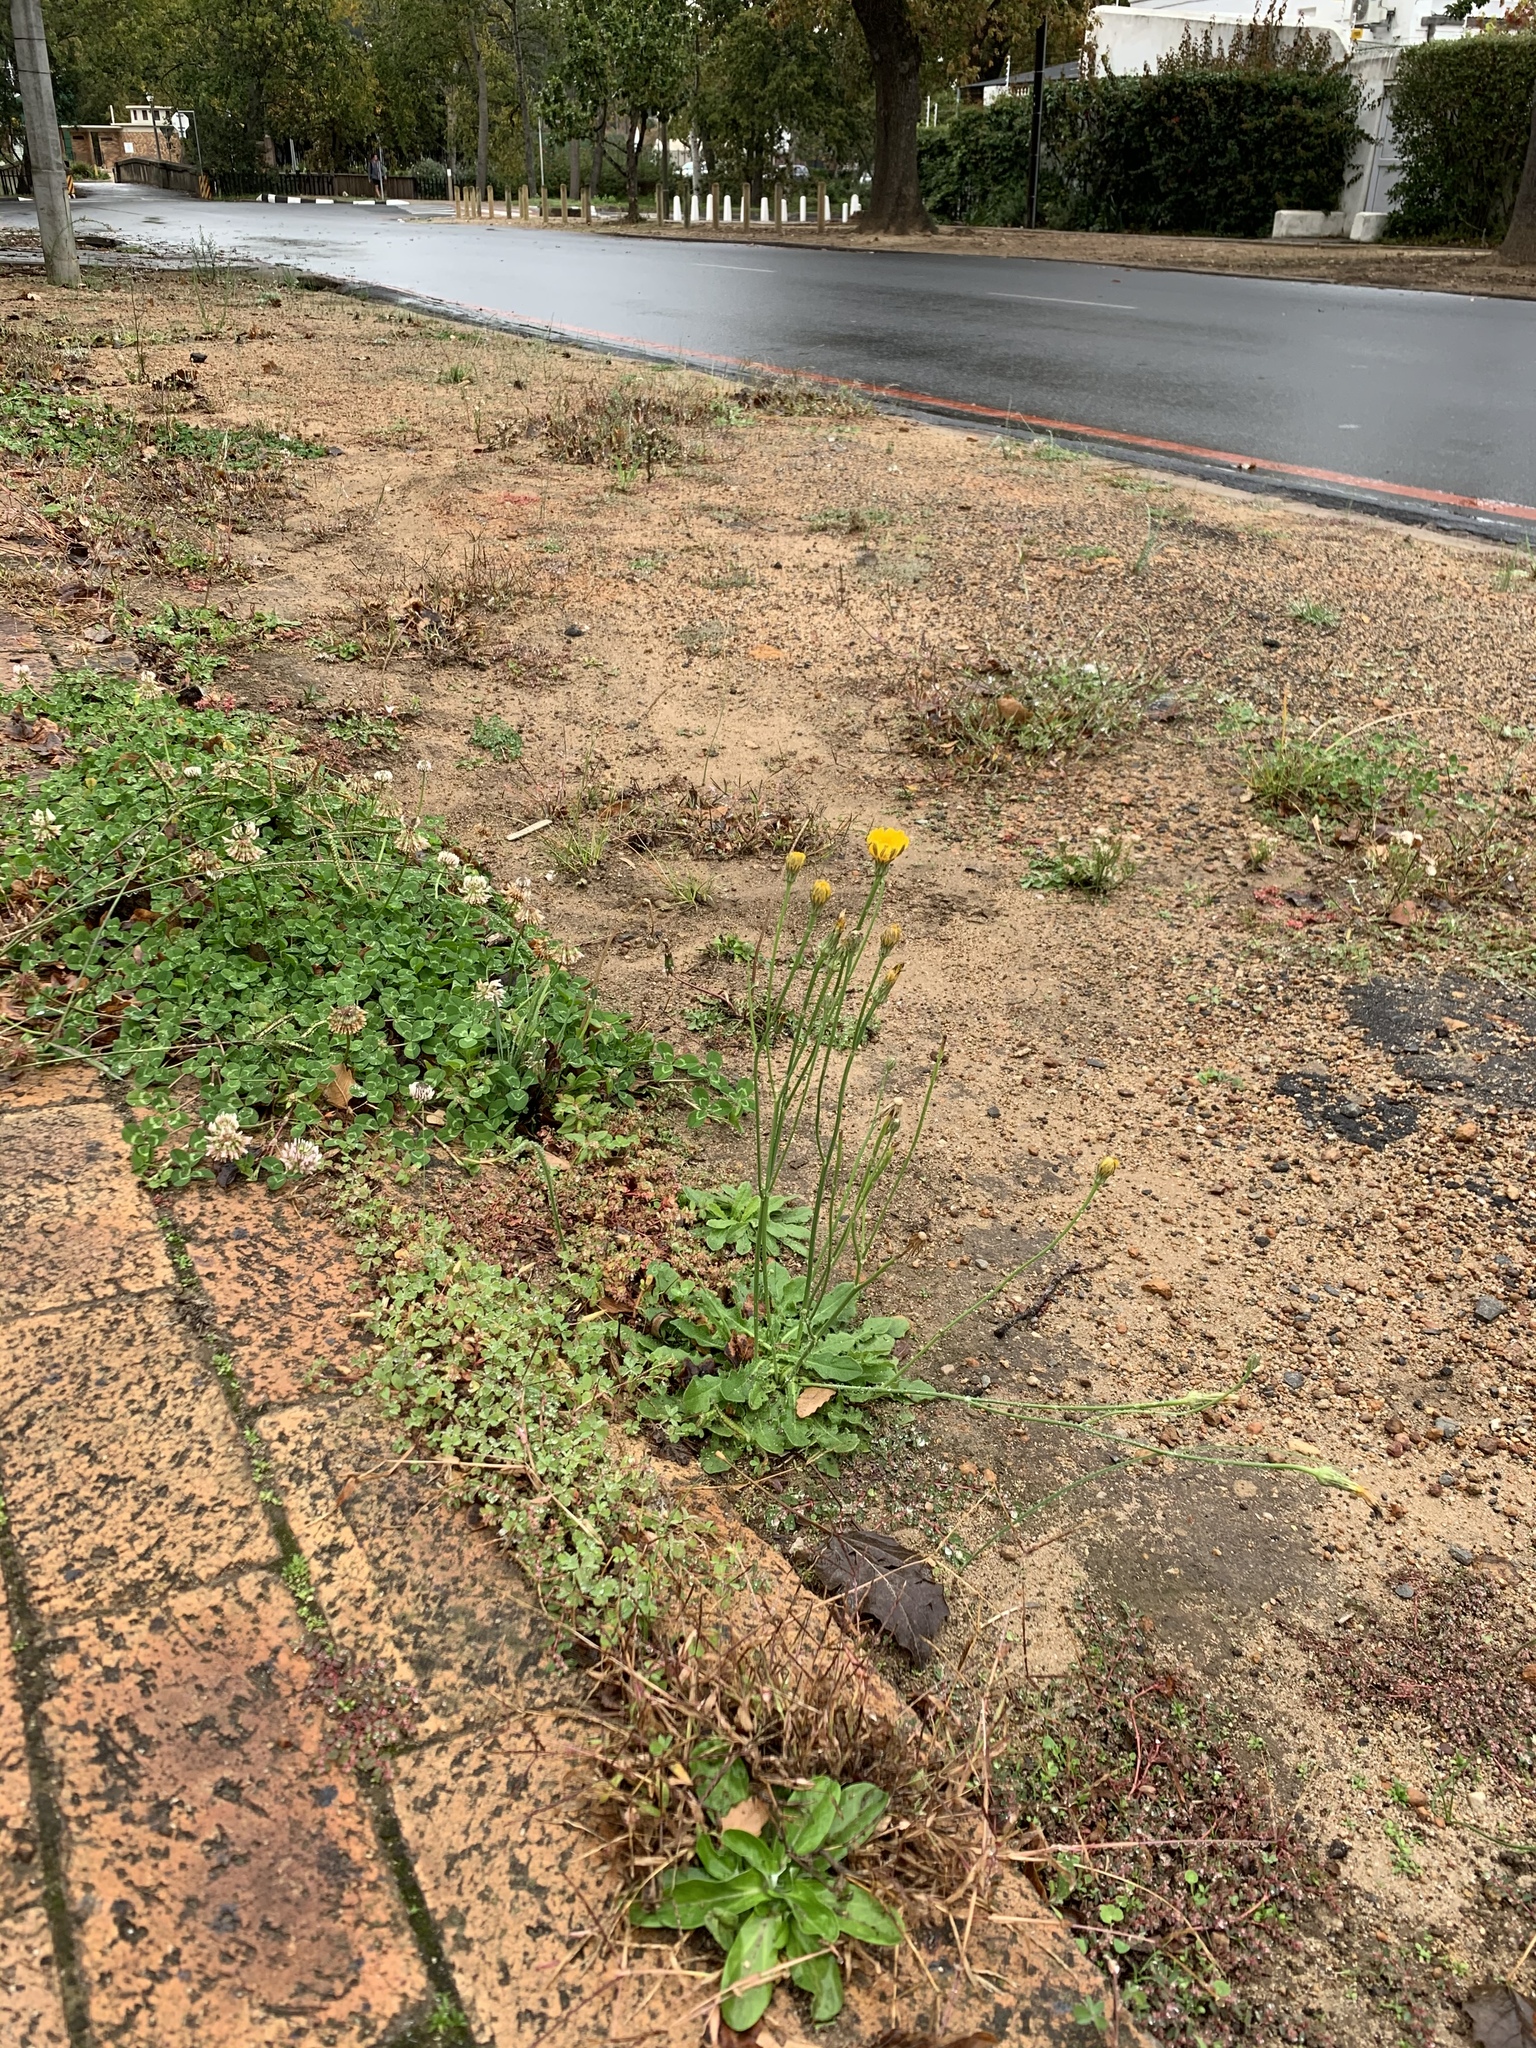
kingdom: Plantae
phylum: Tracheophyta
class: Magnoliopsida
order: Asterales
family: Asteraceae
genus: Hypochaeris
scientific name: Hypochaeris radicata
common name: Flatweed
